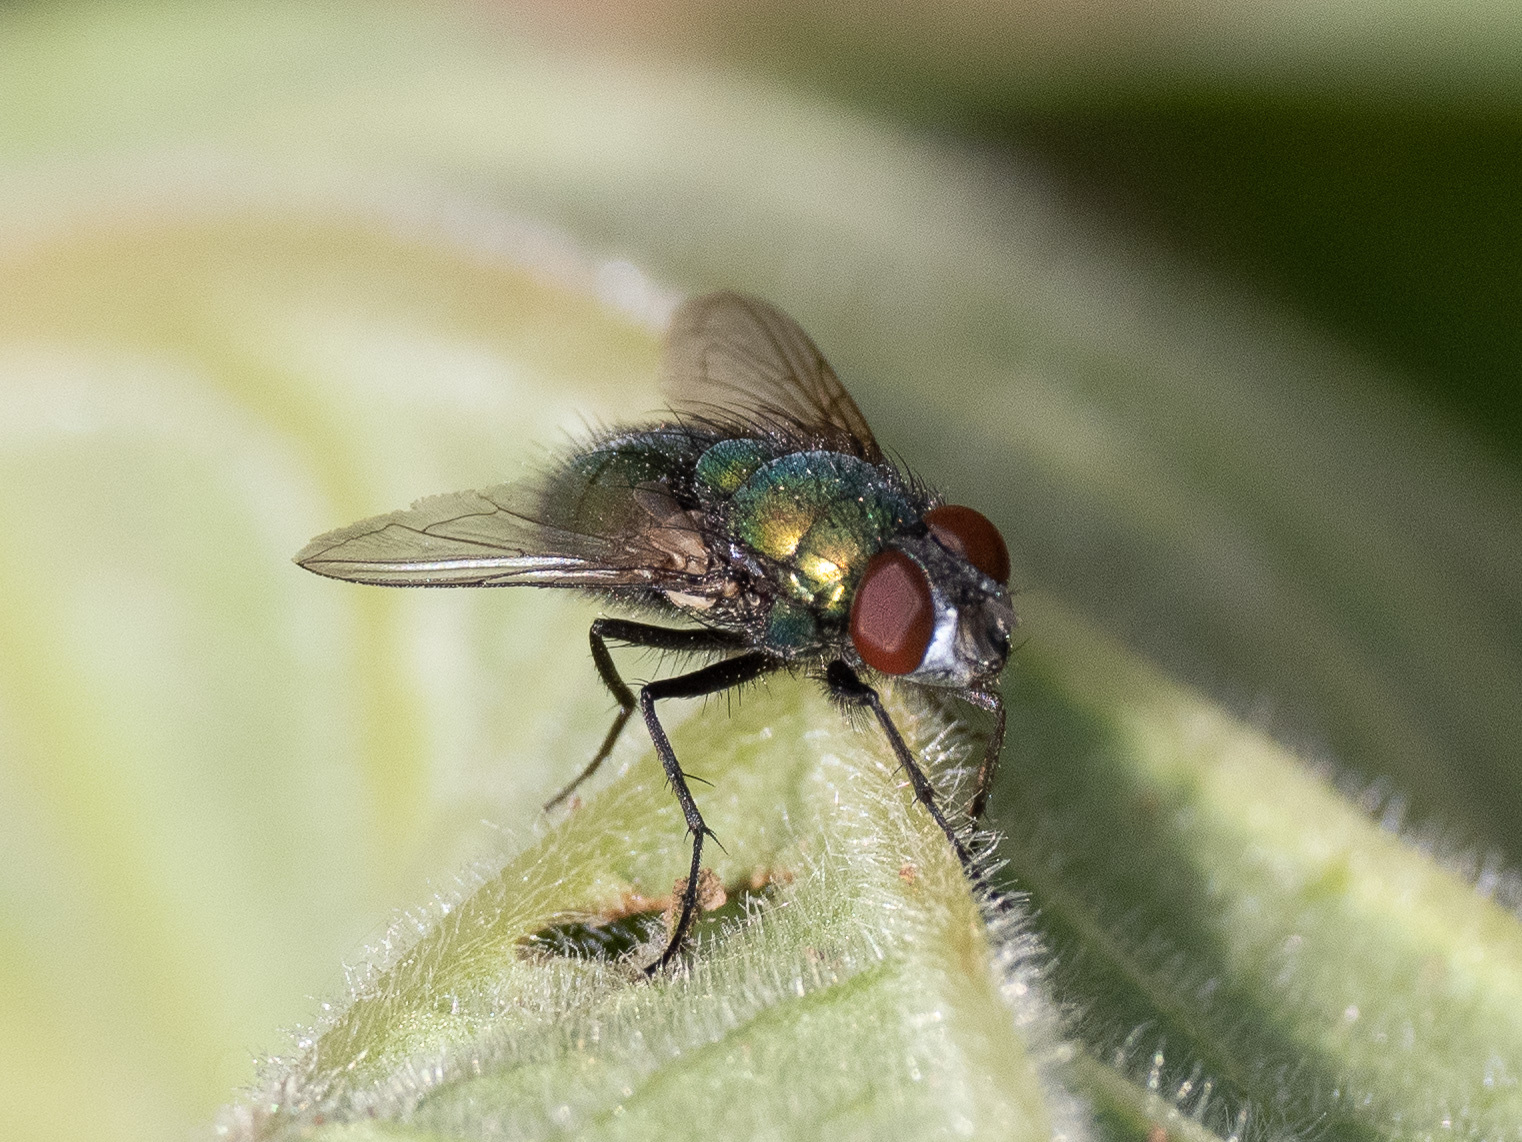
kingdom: Animalia
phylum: Arthropoda
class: Insecta
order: Diptera
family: Calliphoridae
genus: Lucilia
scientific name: Lucilia sericata
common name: Blow fly
